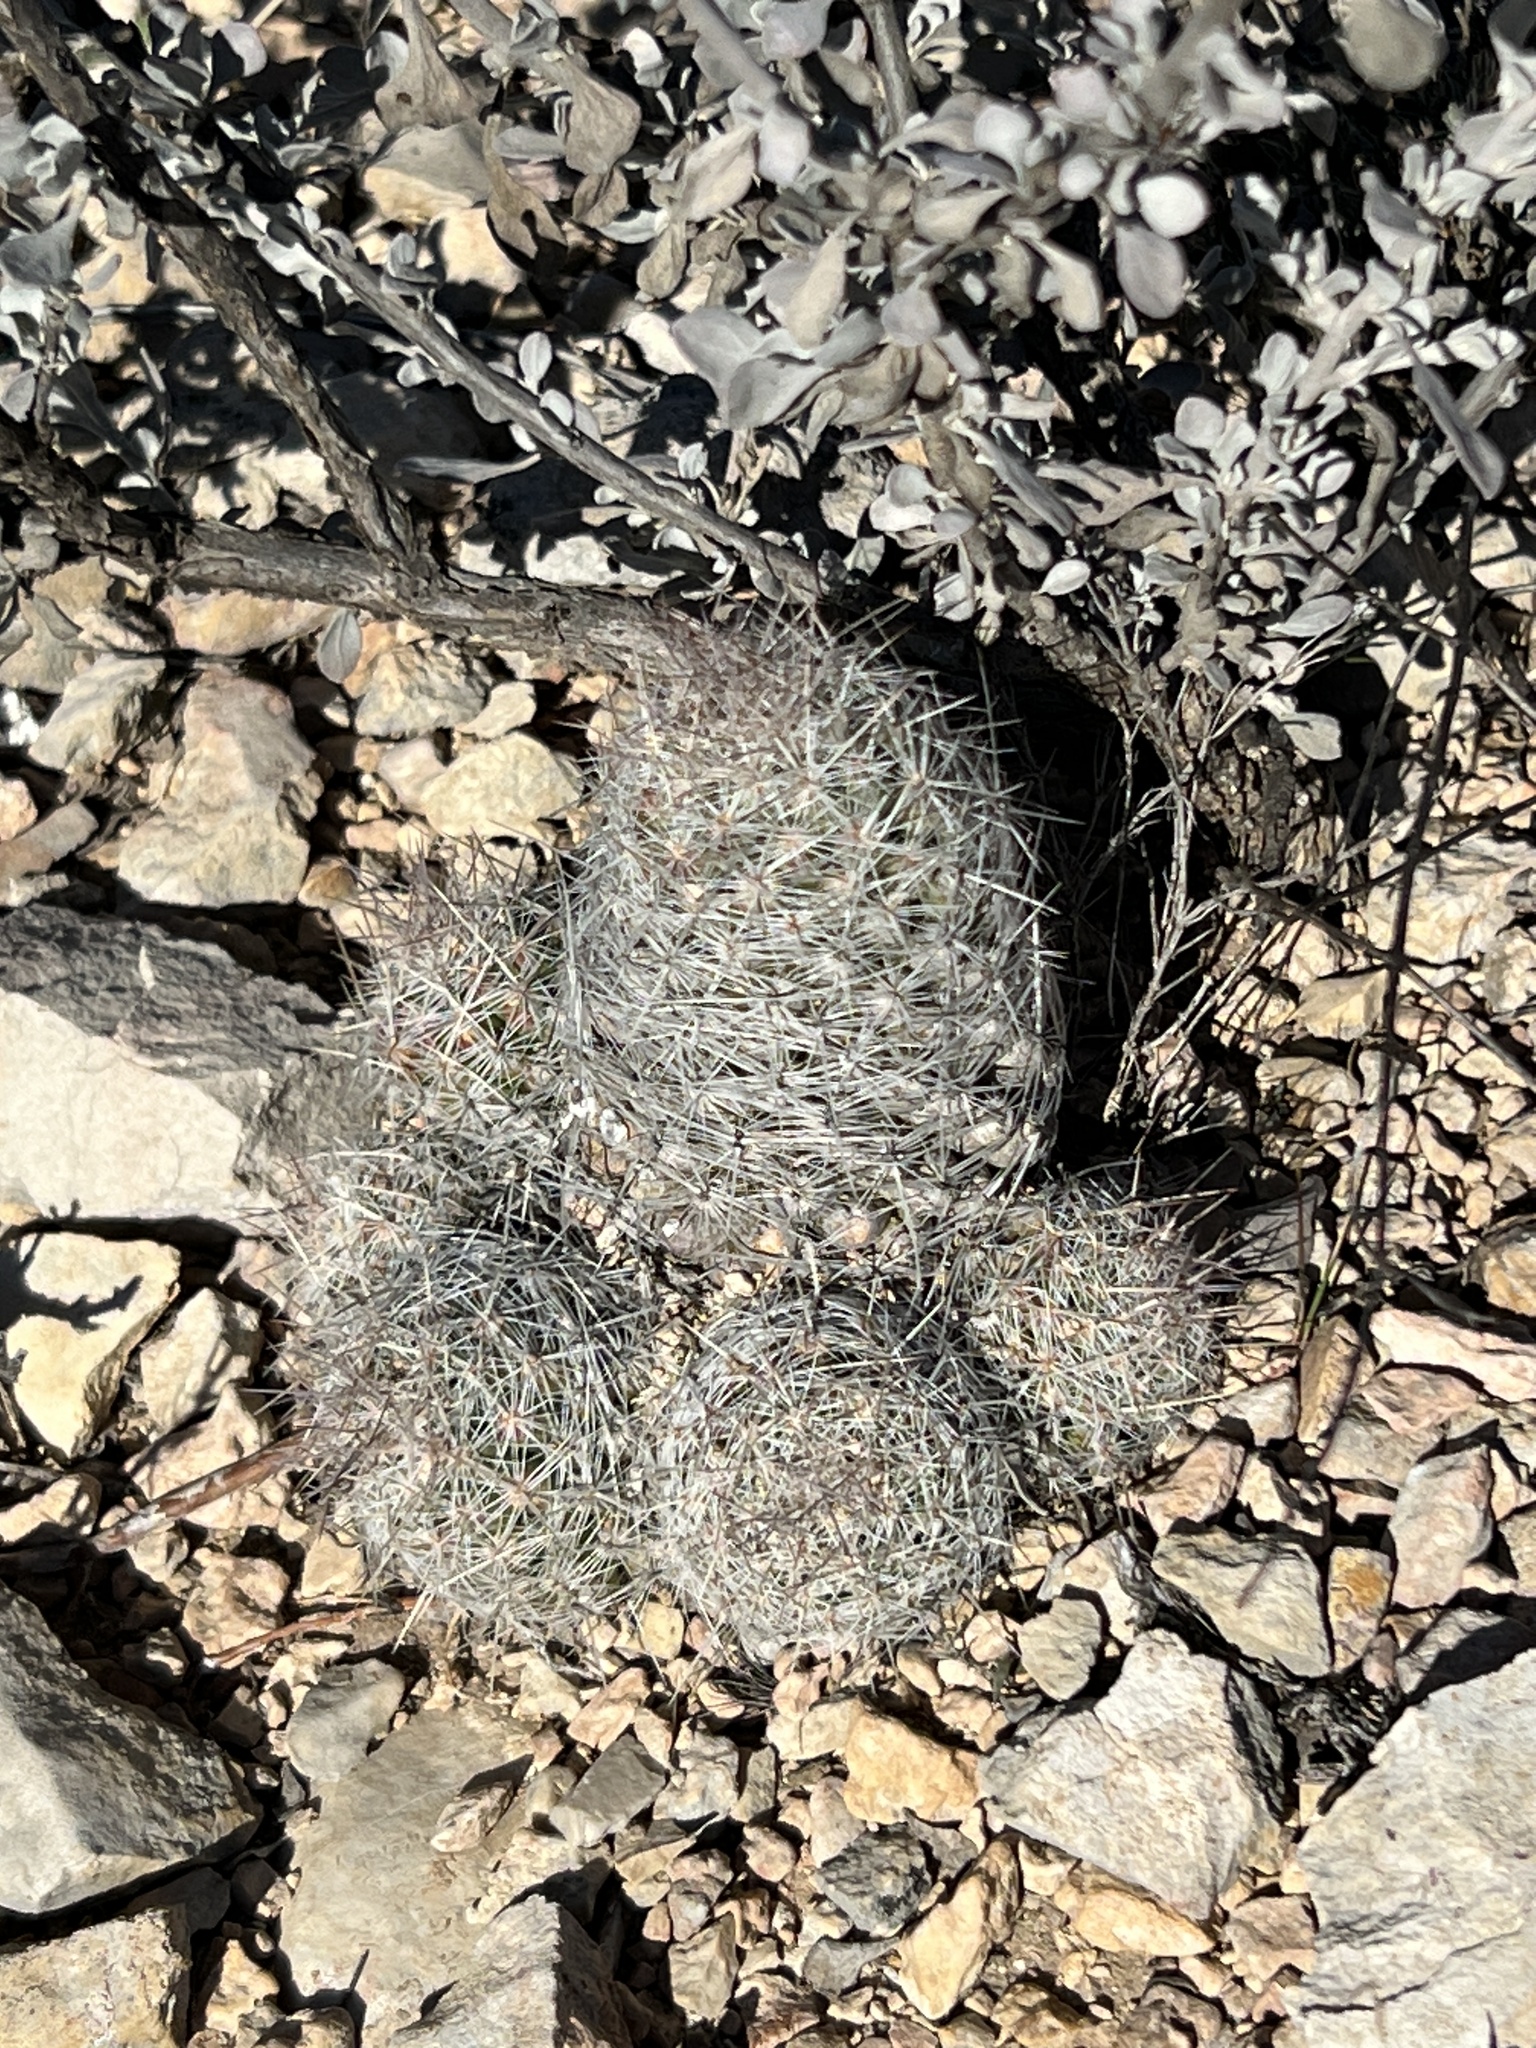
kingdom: Plantae
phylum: Tracheophyta
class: Magnoliopsida
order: Caryophyllales
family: Cactaceae
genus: Pelecyphora
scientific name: Pelecyphora tuberculosa
